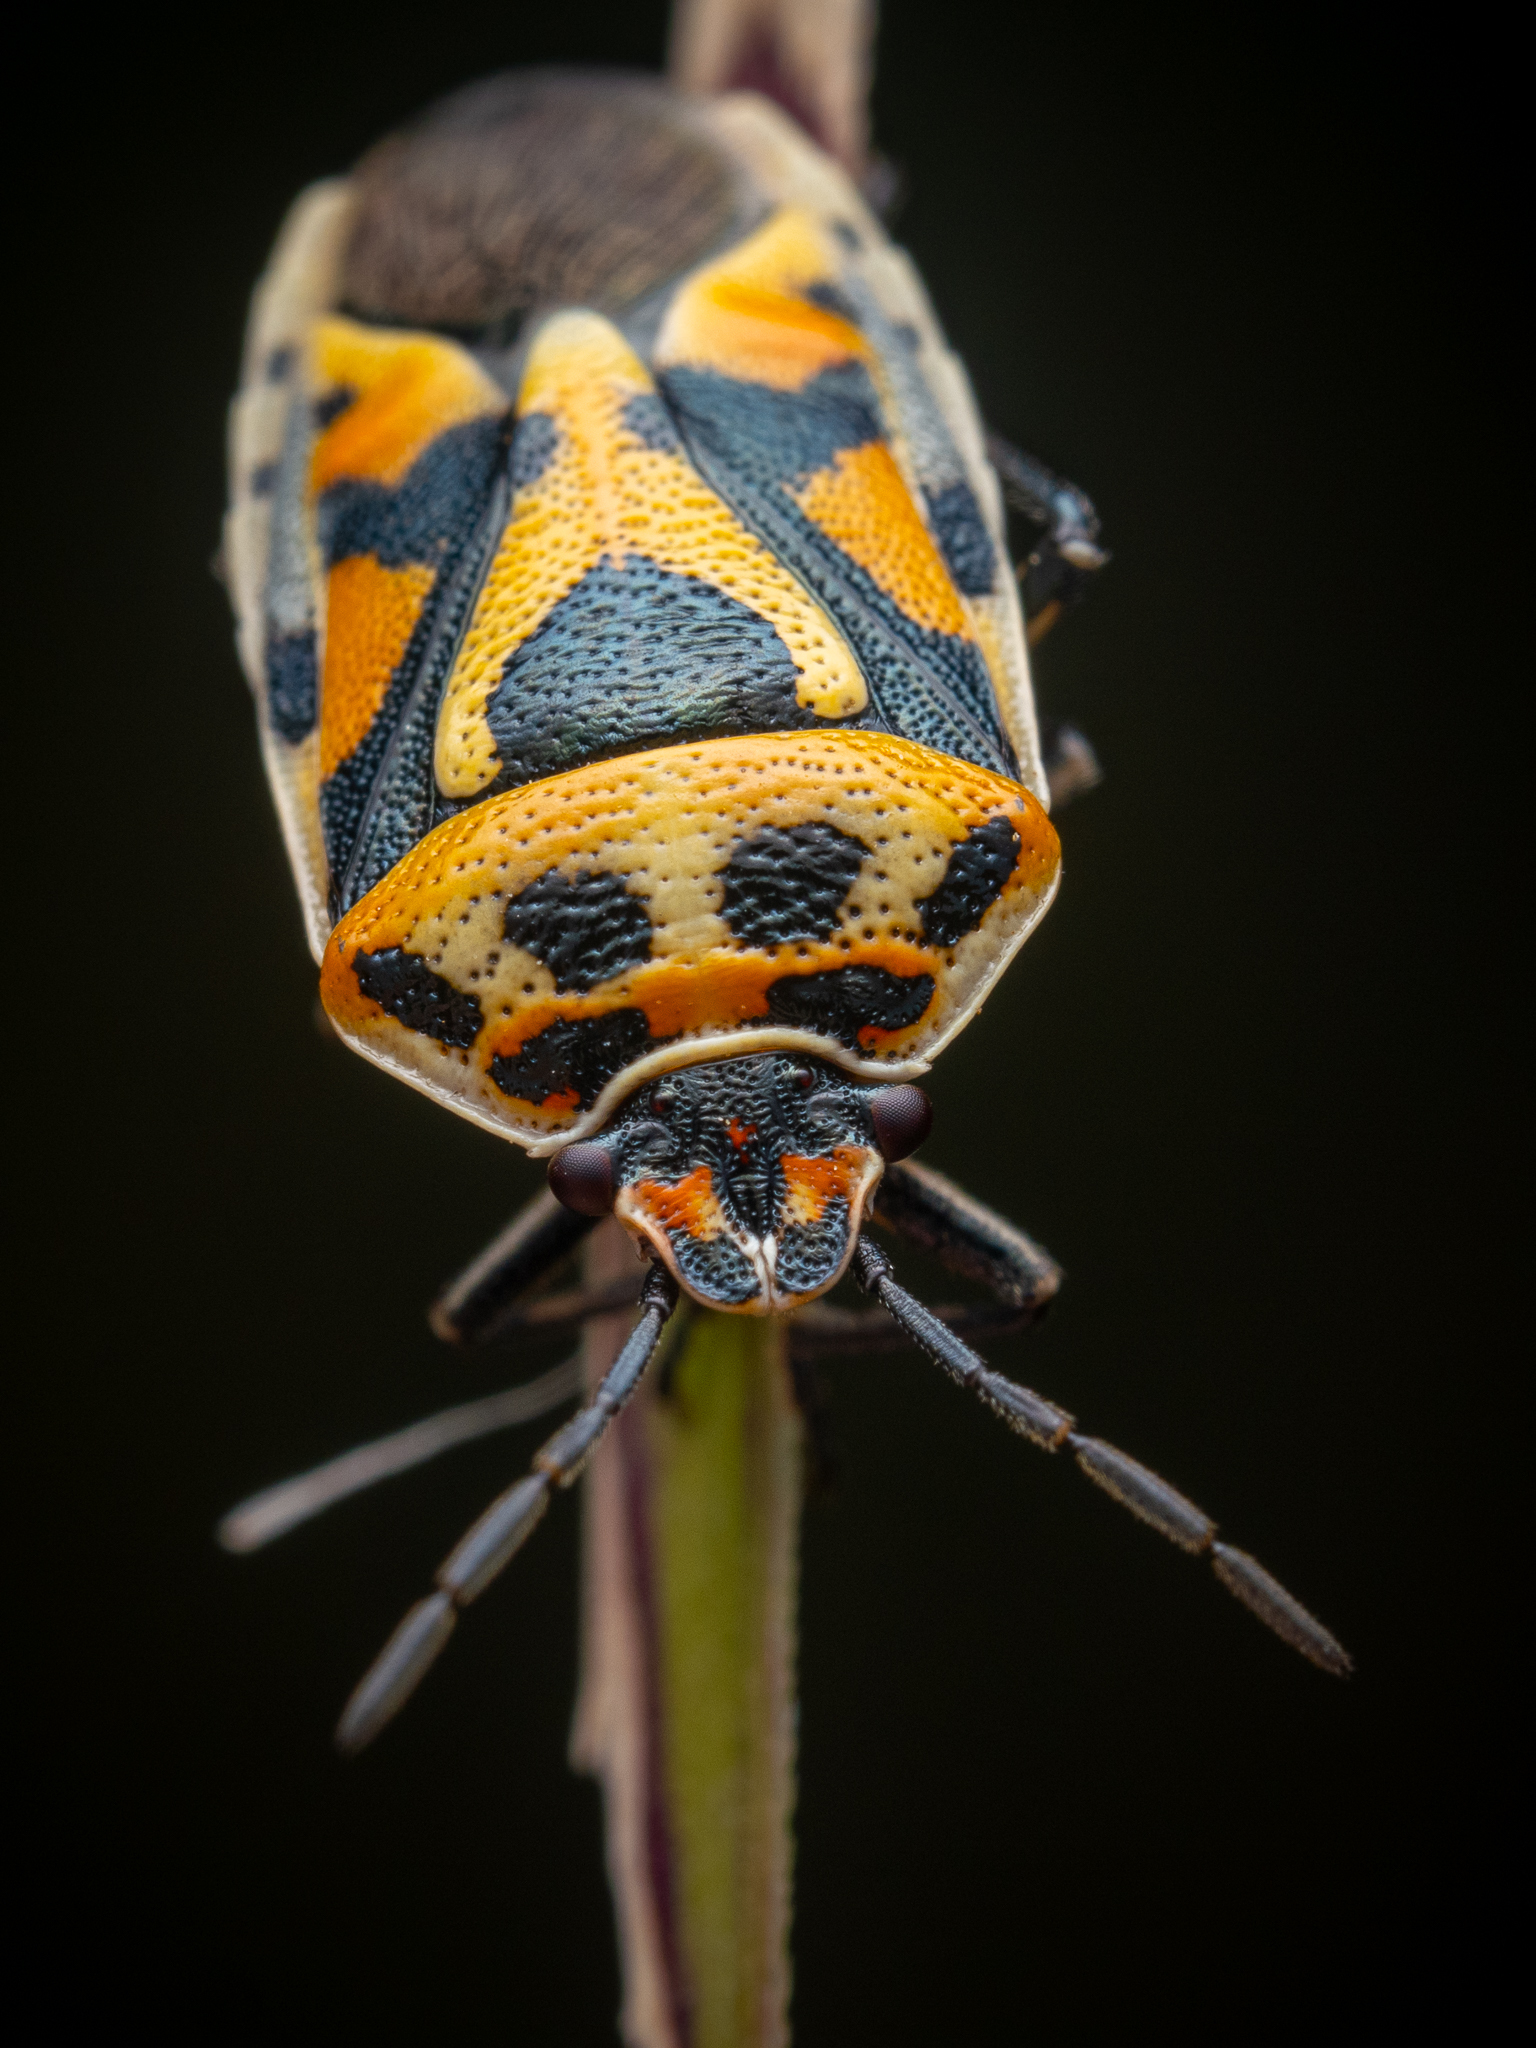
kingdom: Animalia
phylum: Arthropoda
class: Insecta
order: Hemiptera
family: Pentatomidae
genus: Eurydema
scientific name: Eurydema ornata
